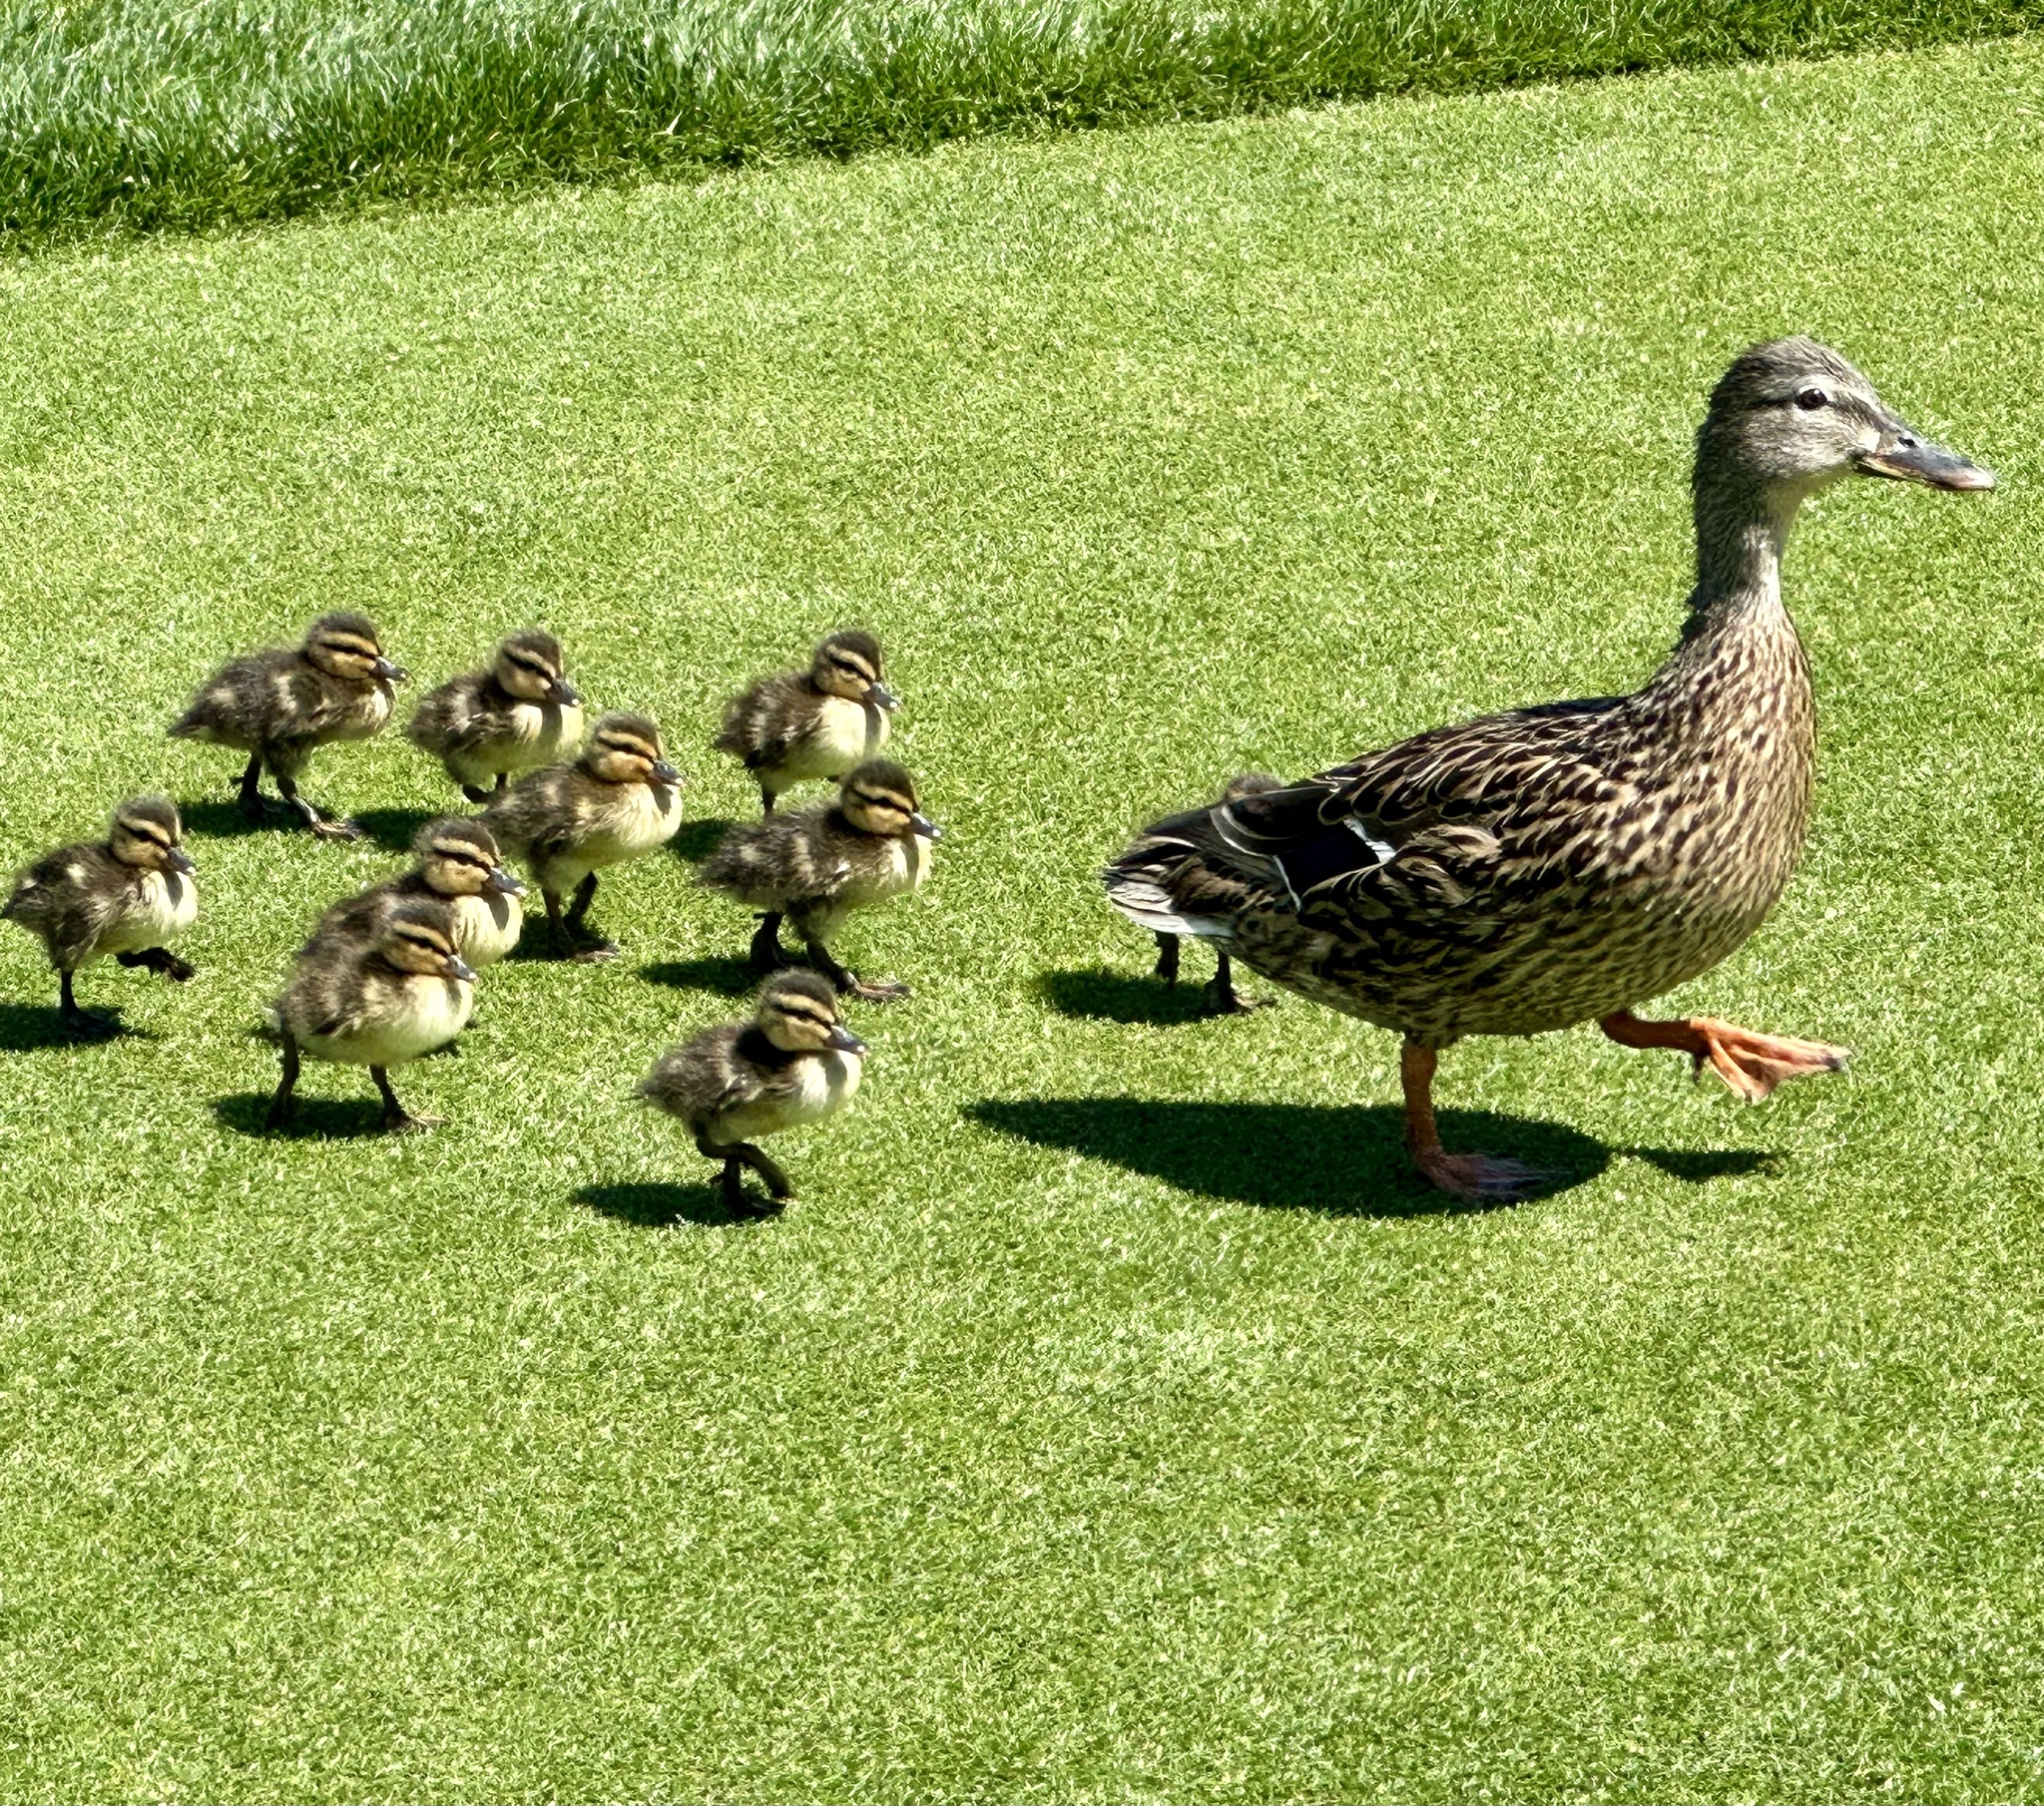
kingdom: Animalia
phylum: Chordata
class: Aves
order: Anseriformes
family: Anatidae
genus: Anas
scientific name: Anas platyrhynchos
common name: Mallard
